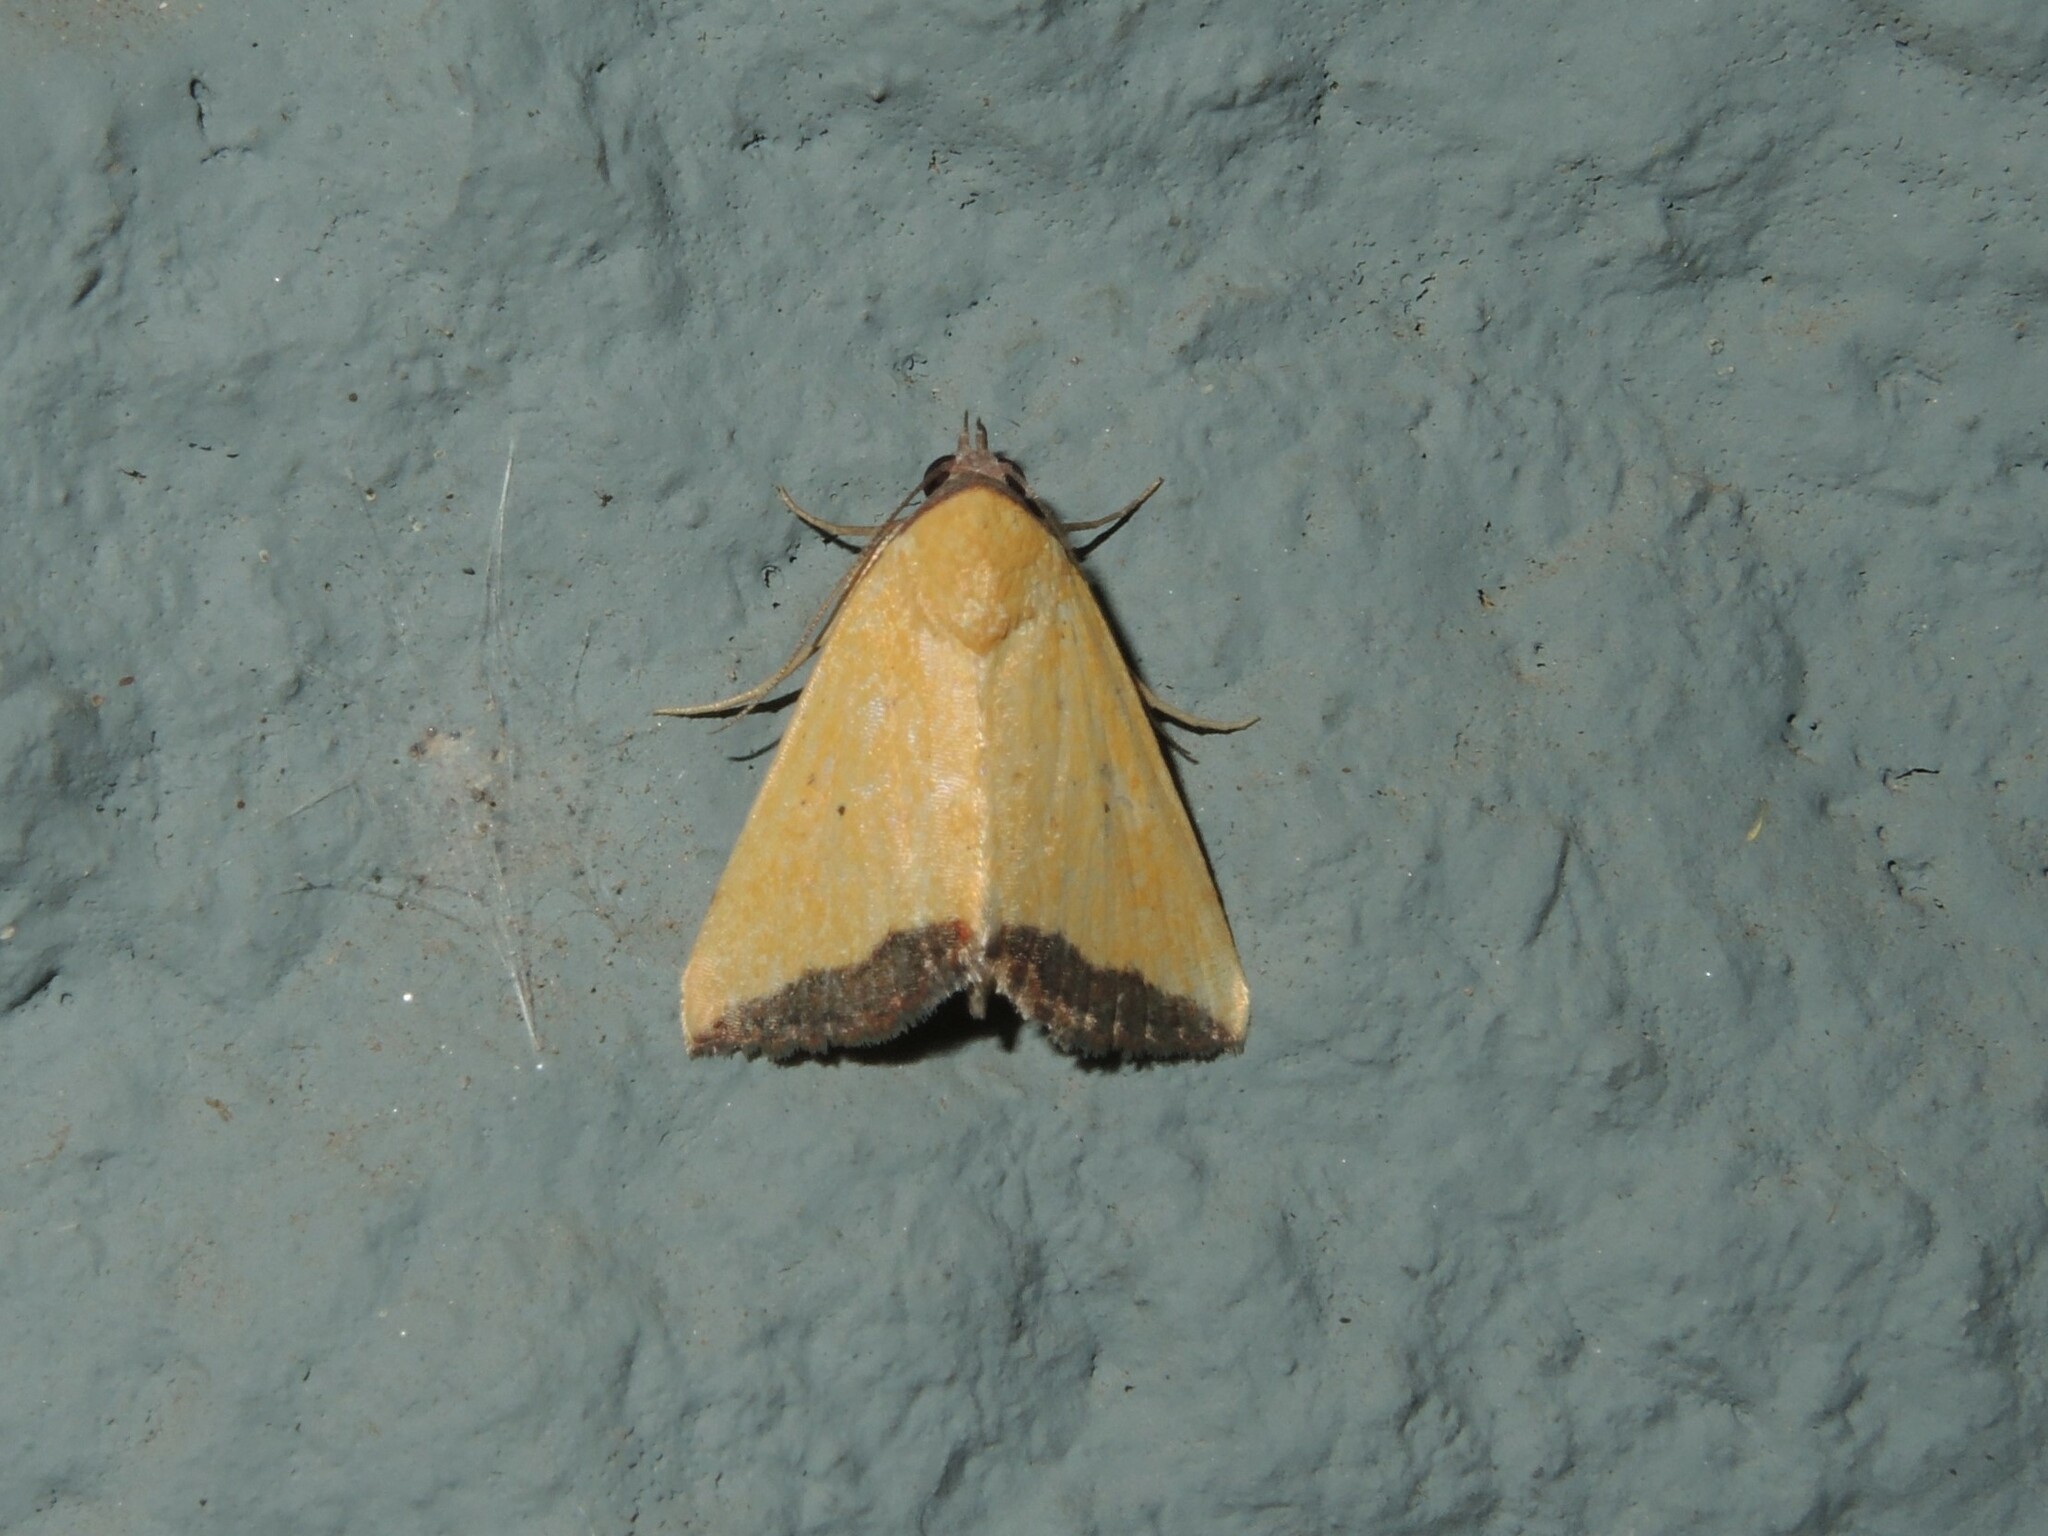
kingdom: Animalia
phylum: Arthropoda
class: Insecta
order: Lepidoptera
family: Noctuidae
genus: Eustrotia
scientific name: Eustrotia marginata
